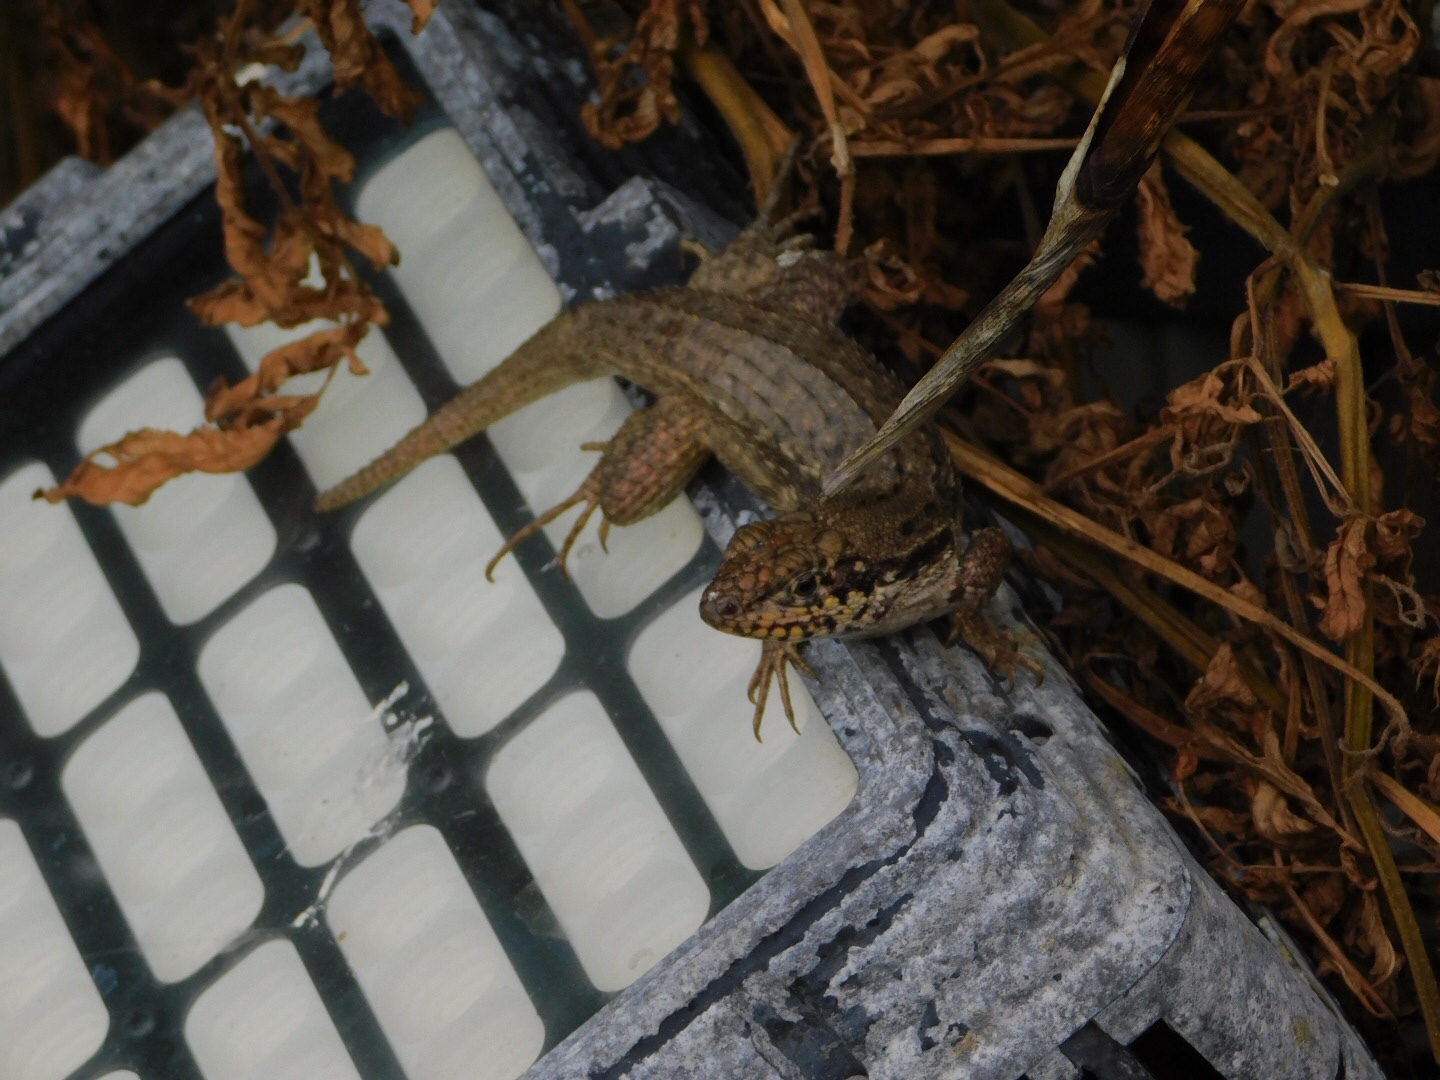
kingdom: Animalia
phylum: Chordata
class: Squamata
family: Leiocephalidae
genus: Leiocephalus
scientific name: Leiocephalus carinatus
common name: Northern curly-tailed lizard
